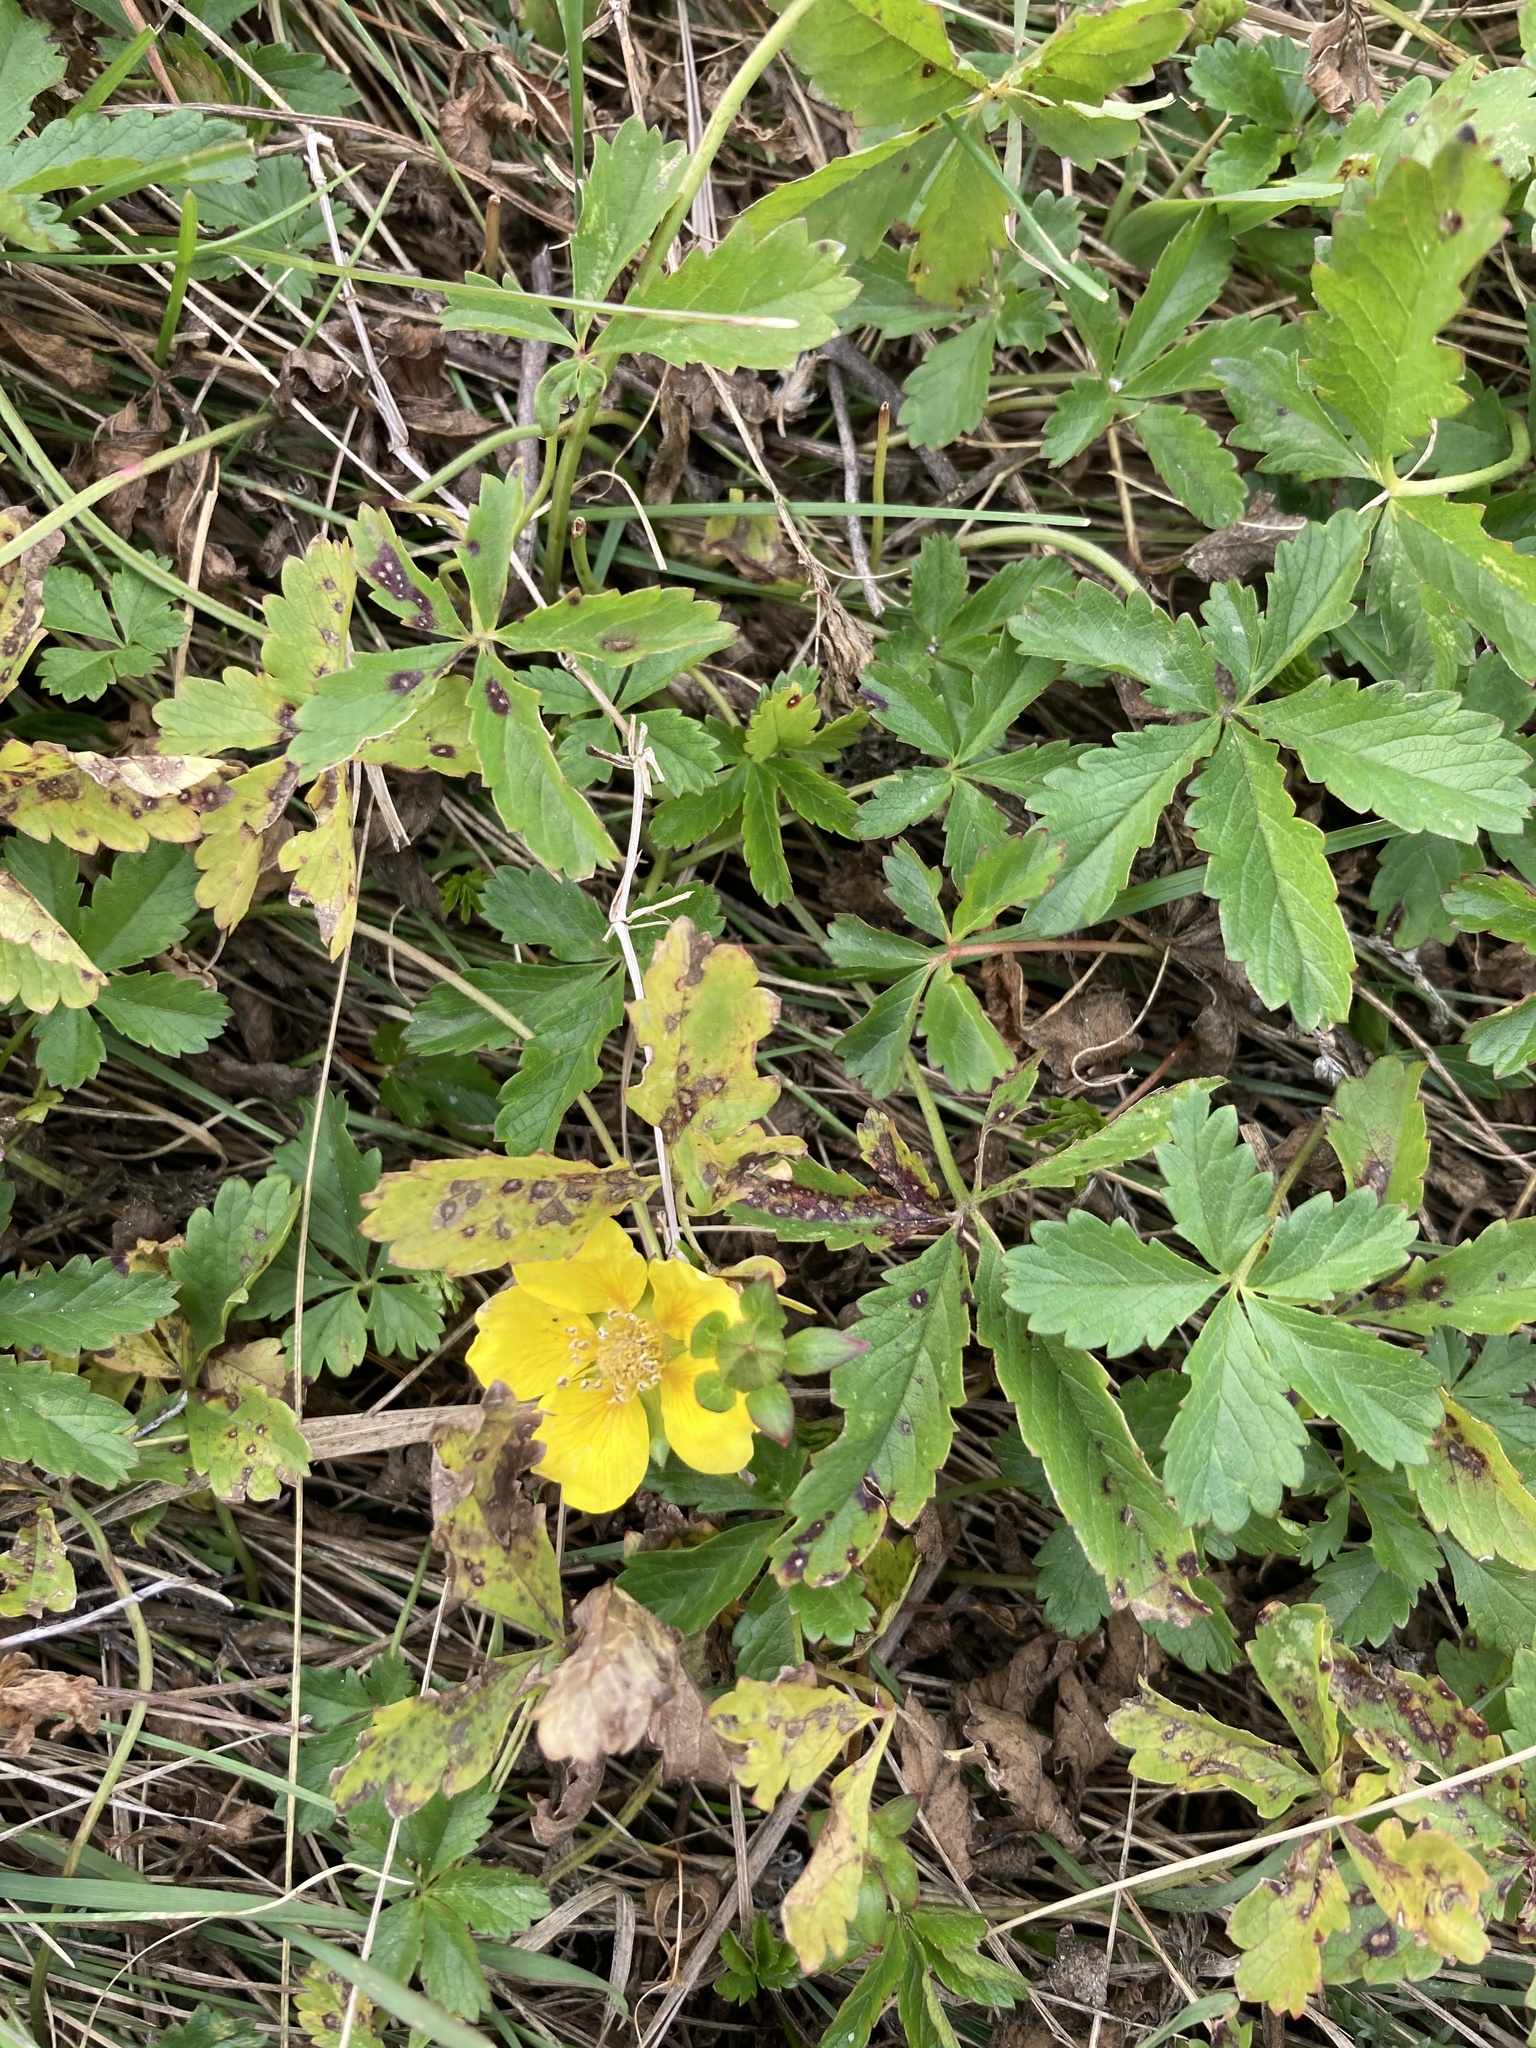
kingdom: Plantae
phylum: Tracheophyta
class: Magnoliopsida
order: Rosales
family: Rosaceae
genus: Potentilla
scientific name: Potentilla reptans
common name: Creeping cinquefoil
